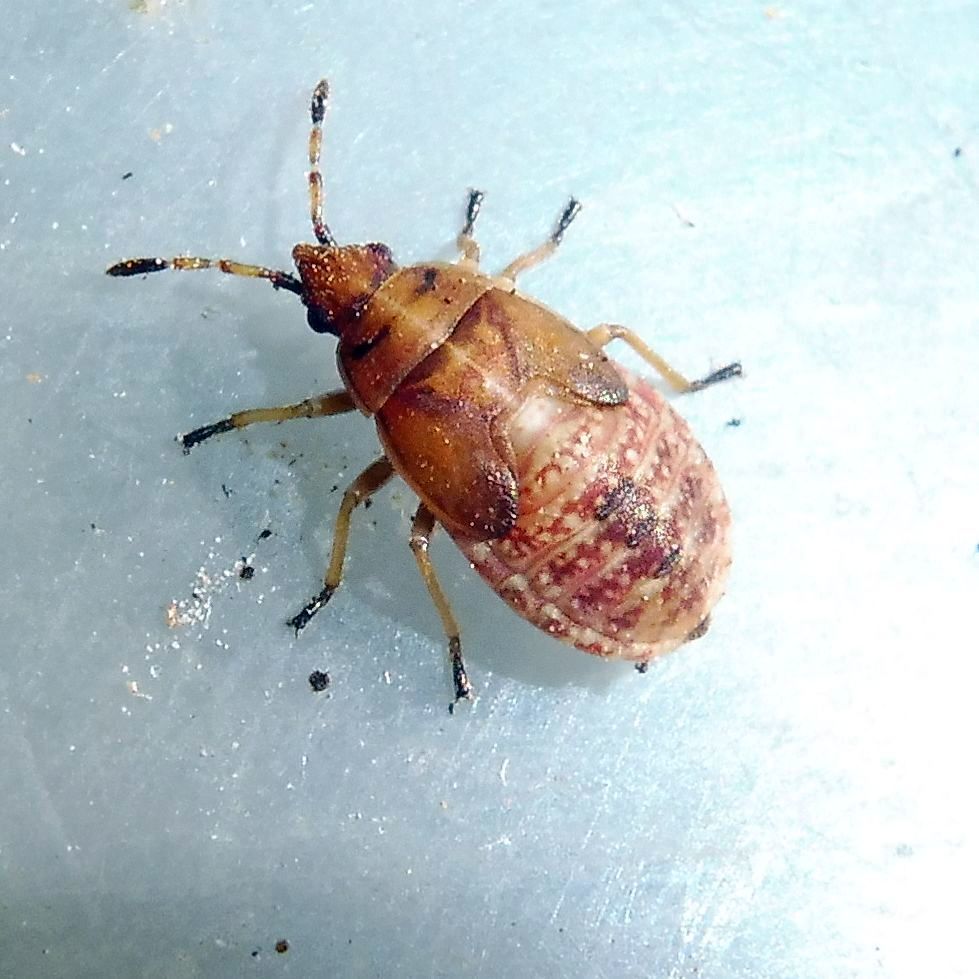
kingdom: Animalia
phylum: Arthropoda
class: Insecta
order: Hemiptera
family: Lygaeidae
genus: Kleidocerys
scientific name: Kleidocerys resedae
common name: Birch catkin bug
